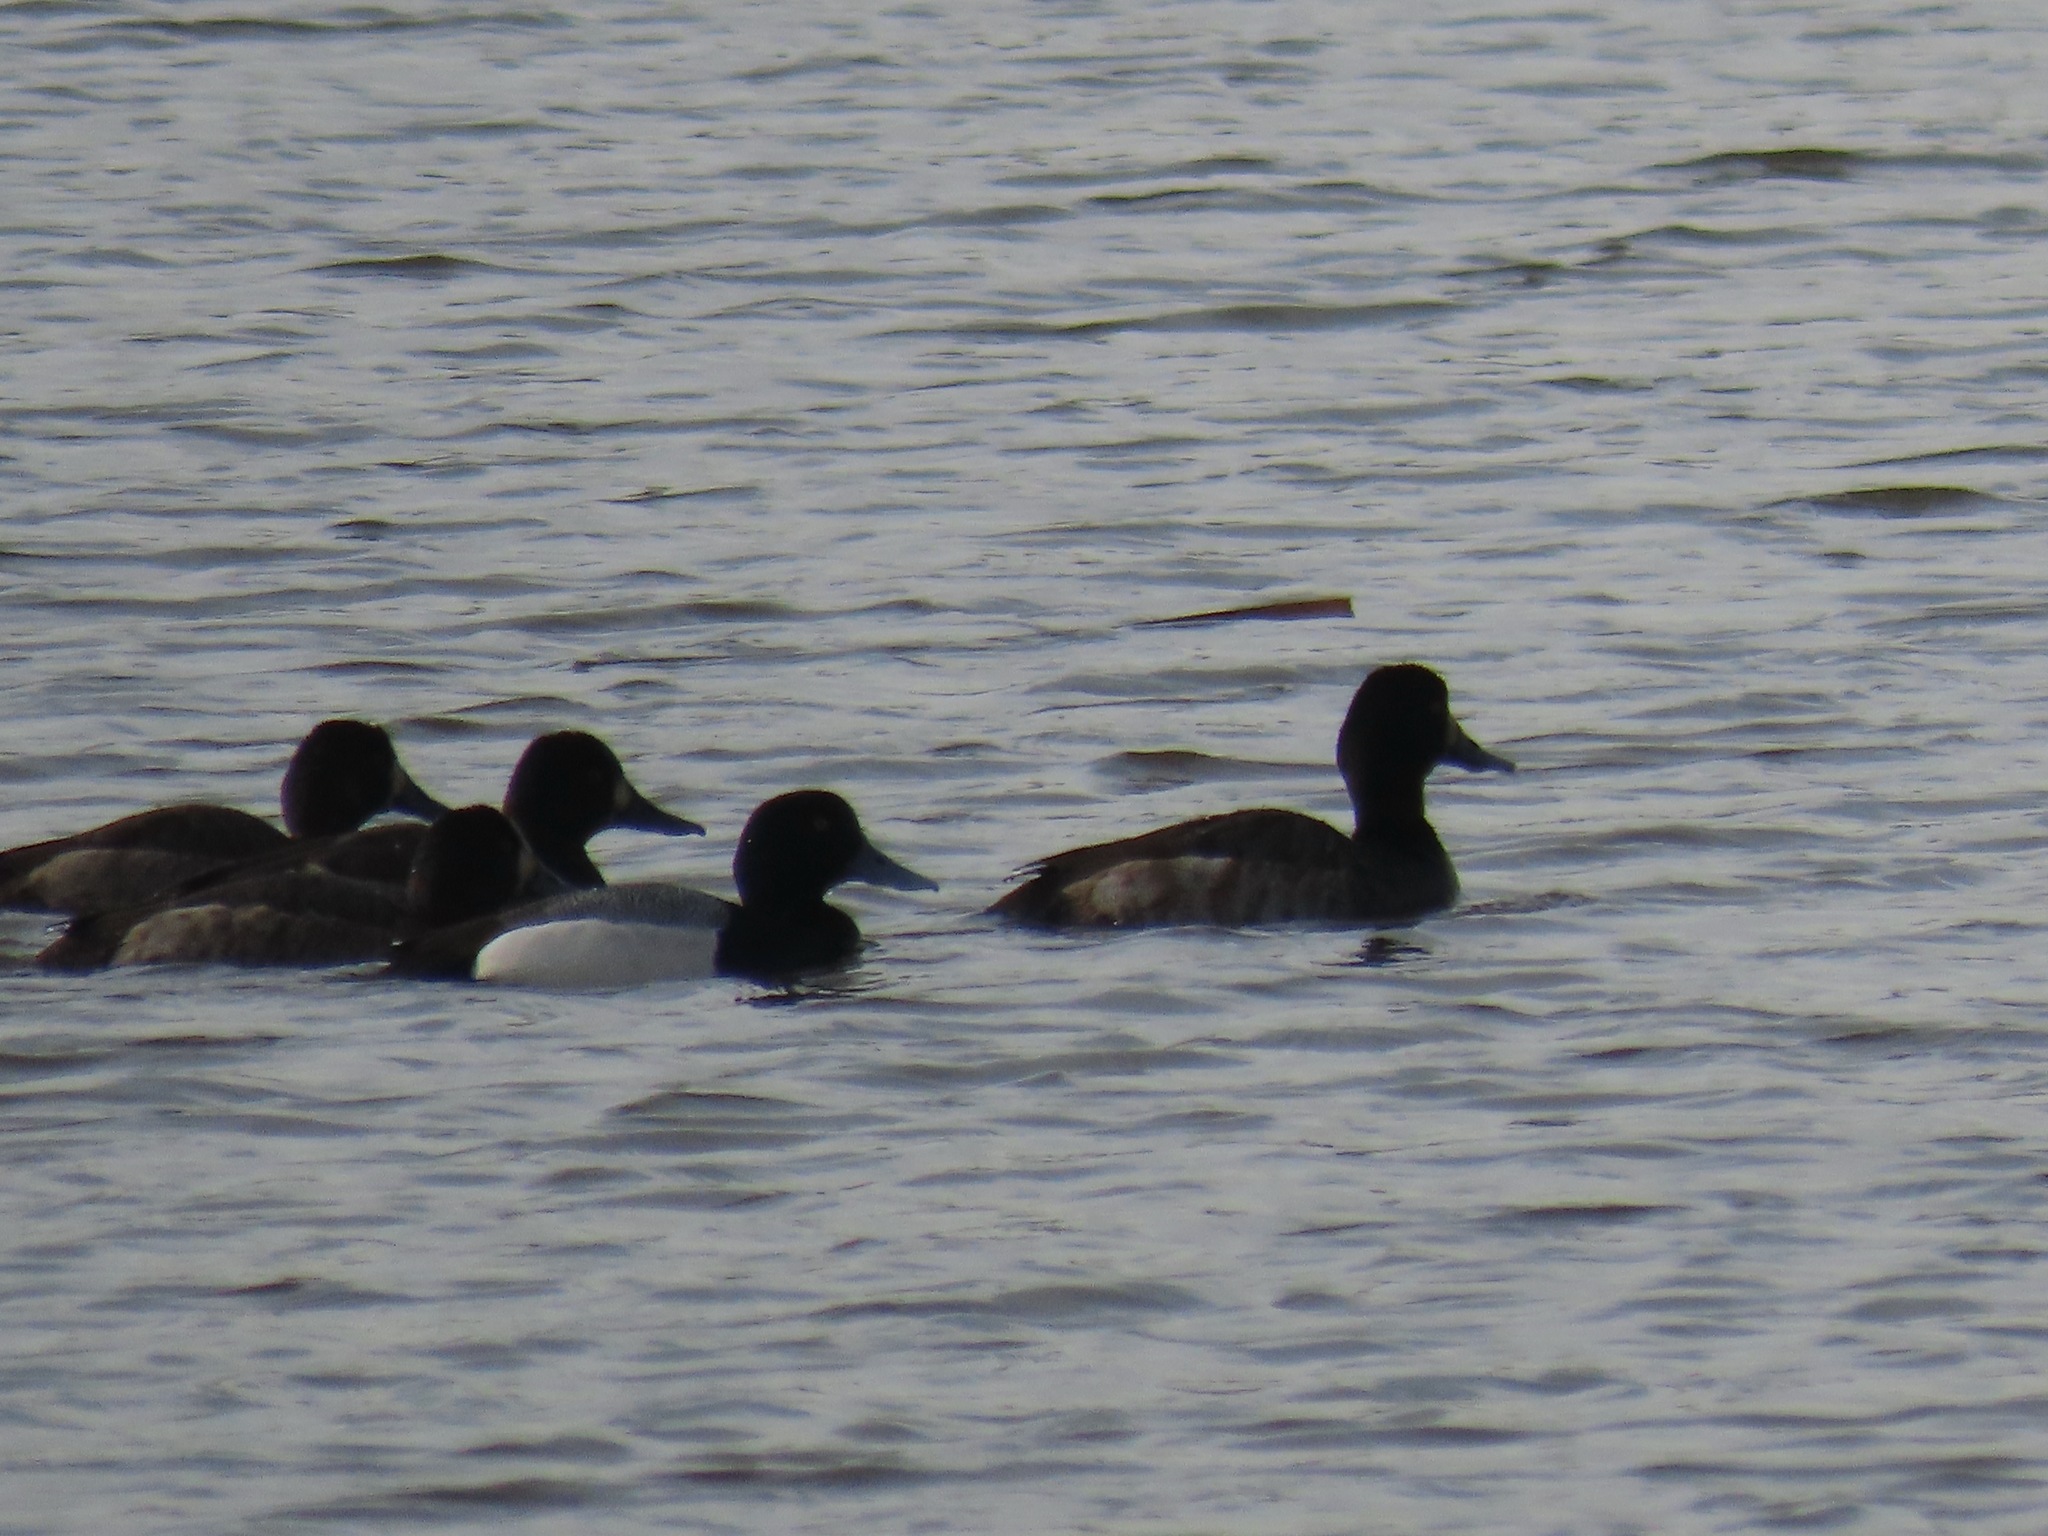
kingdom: Animalia
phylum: Chordata
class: Aves
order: Anseriformes
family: Anatidae
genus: Aythya
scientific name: Aythya marila
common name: Greater scaup
